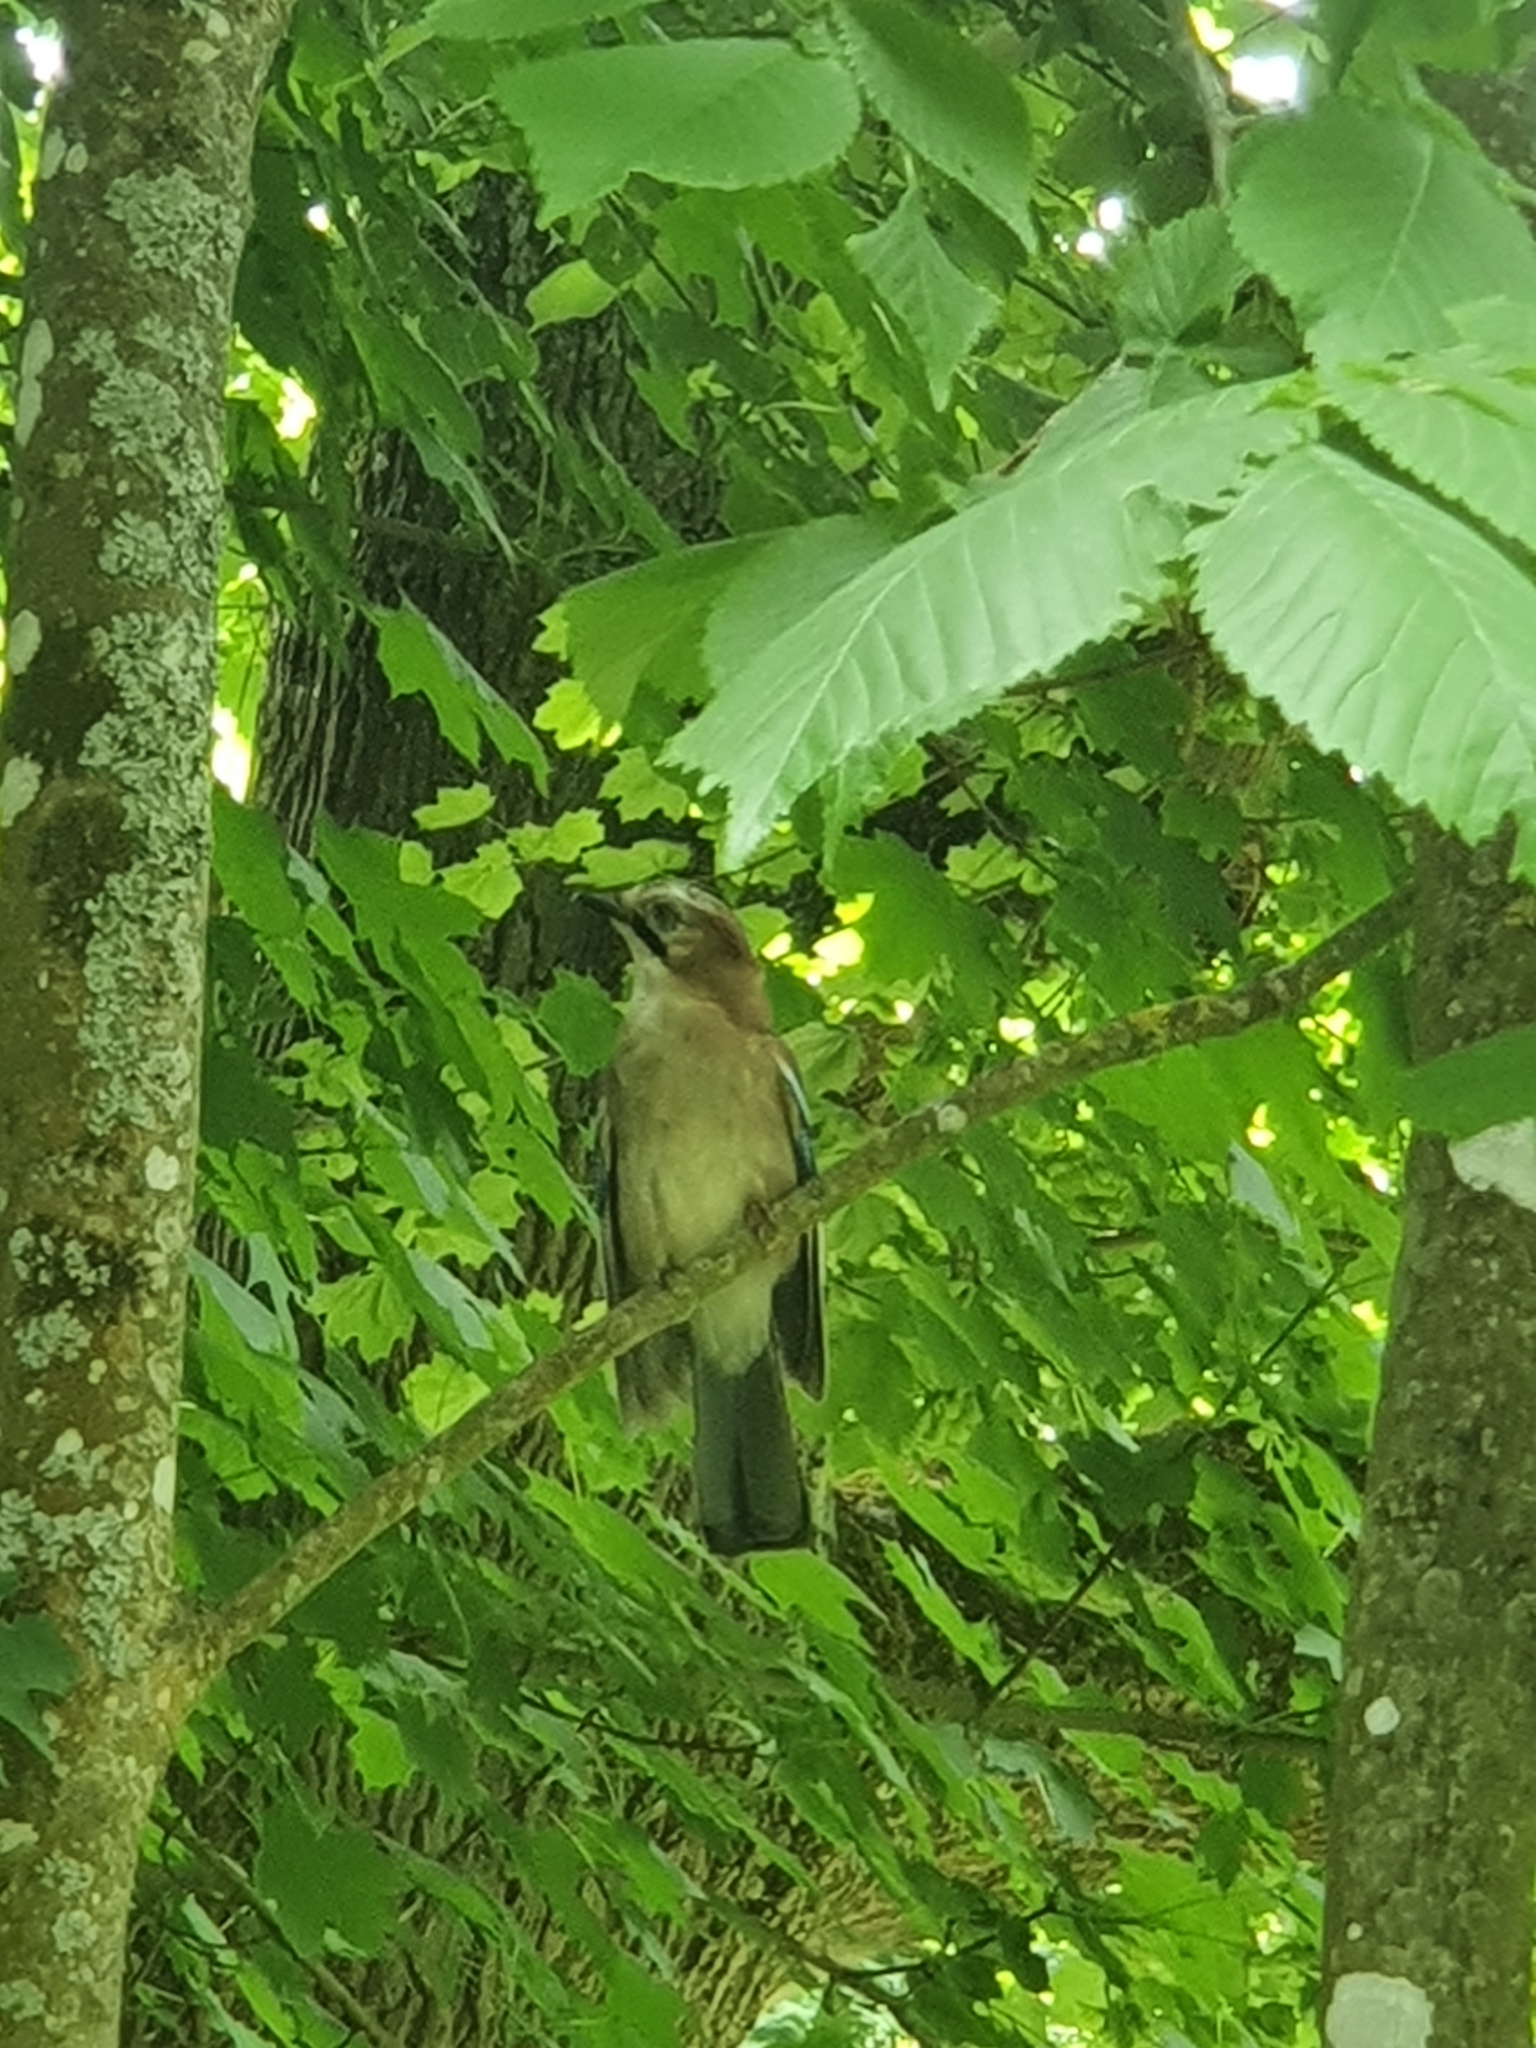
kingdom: Animalia
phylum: Chordata
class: Aves
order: Passeriformes
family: Corvidae
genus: Garrulus
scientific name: Garrulus glandarius
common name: Eurasian jay
